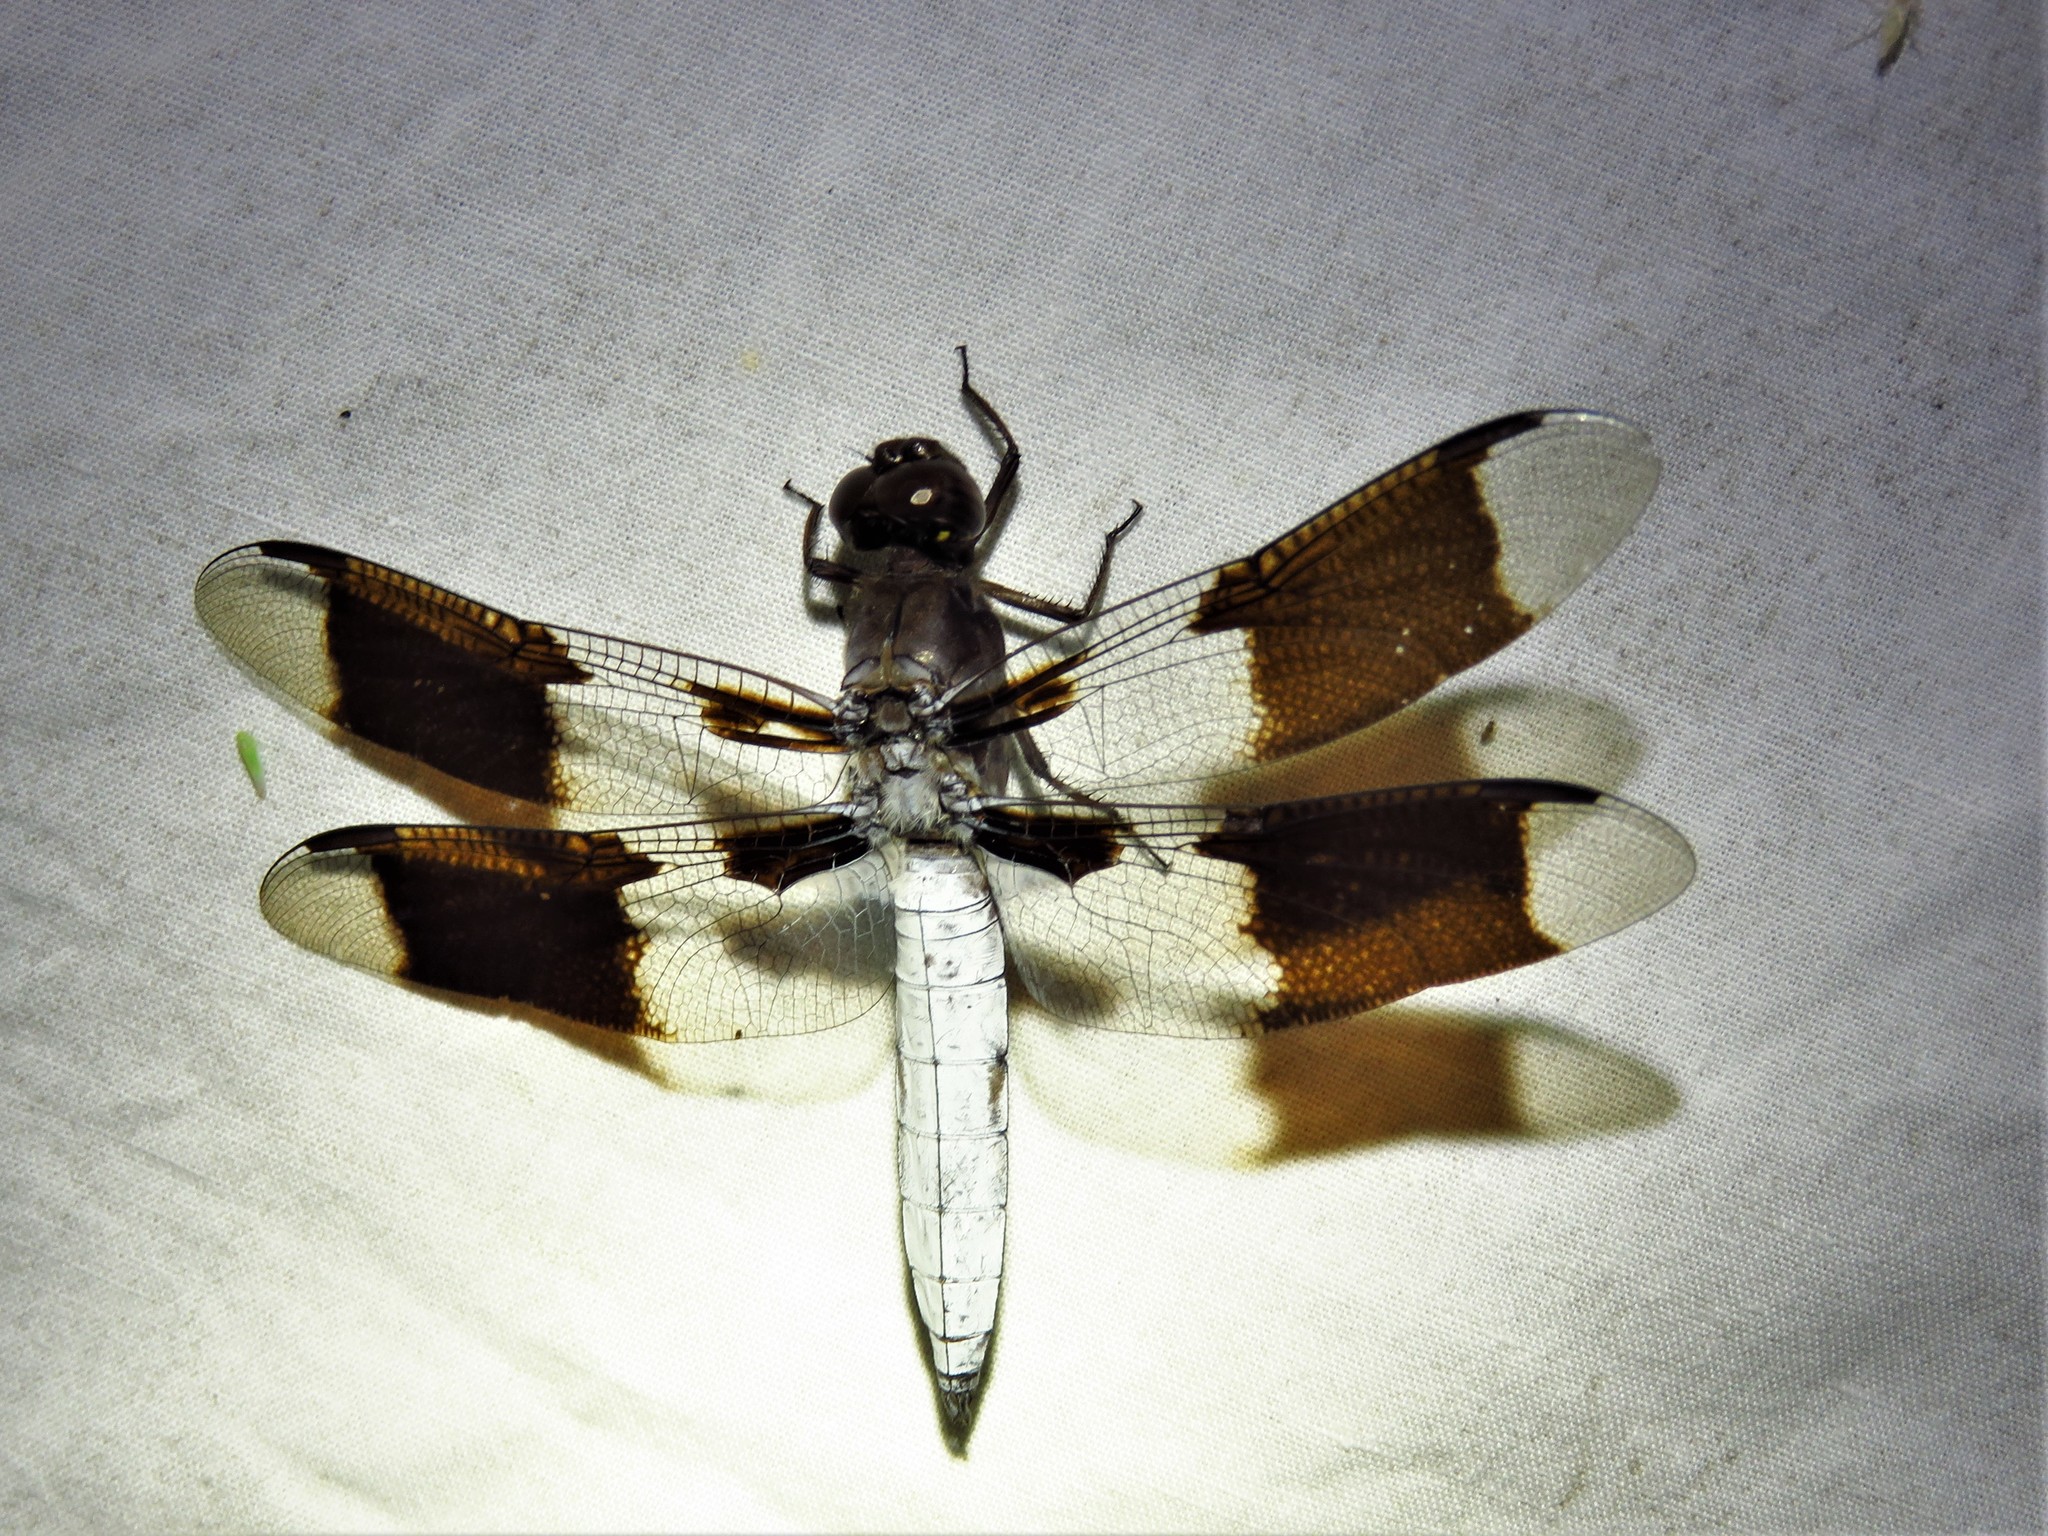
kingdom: Animalia
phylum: Arthropoda
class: Insecta
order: Odonata
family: Libellulidae
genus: Plathemis
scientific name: Plathemis lydia
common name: Common whitetail
